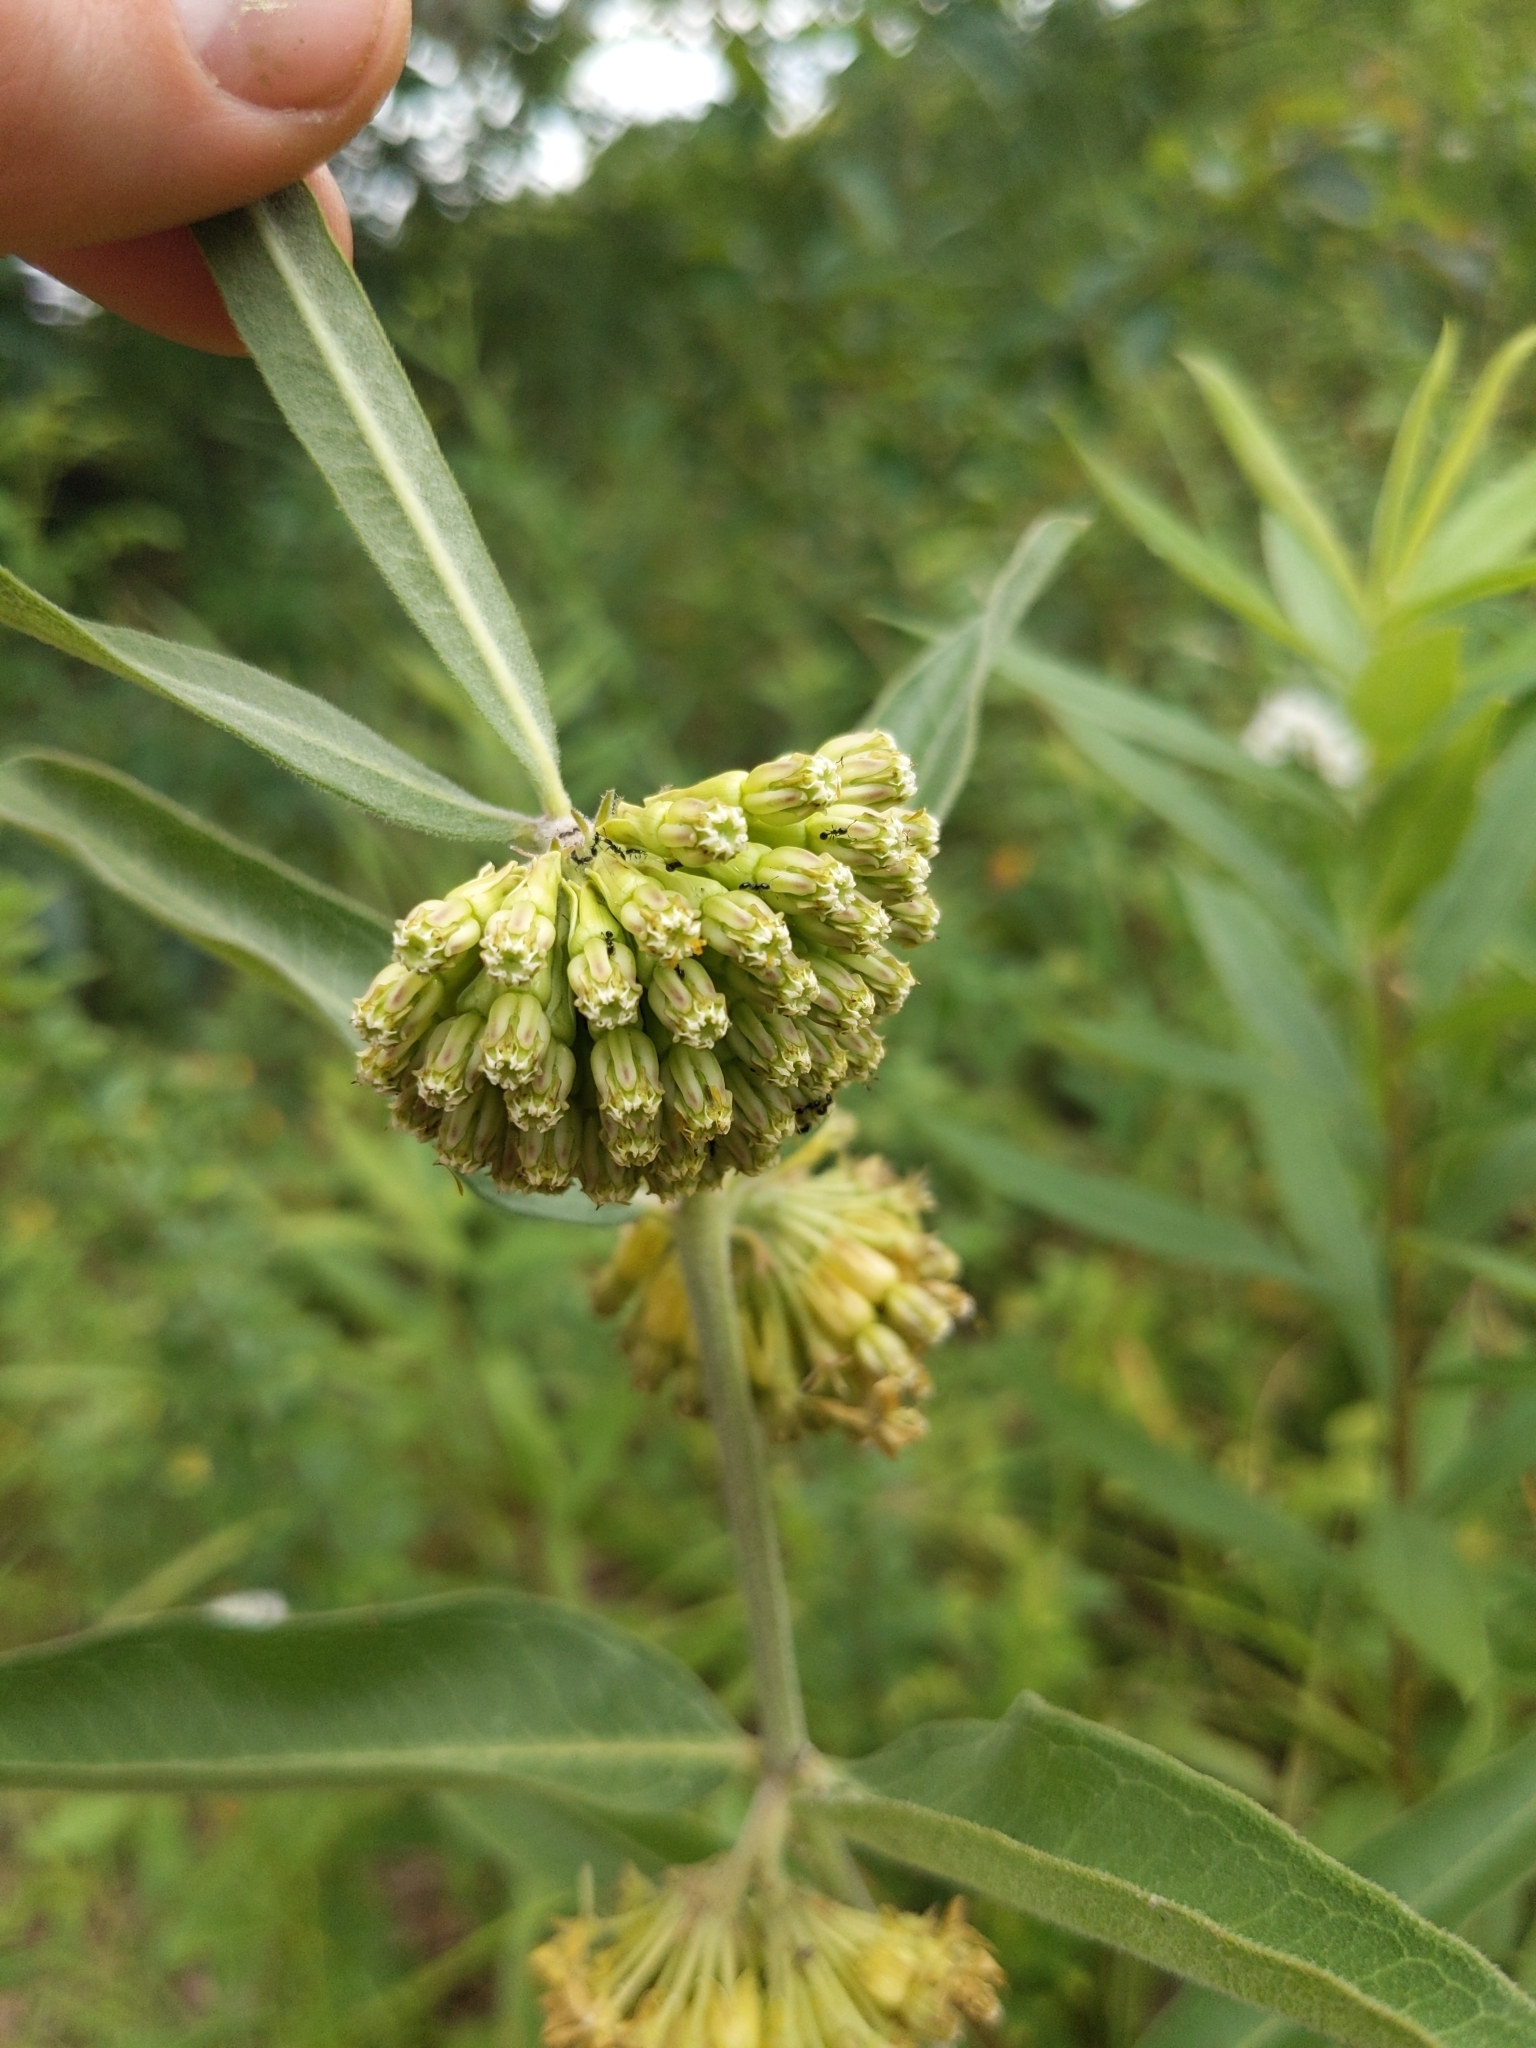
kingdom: Plantae
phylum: Tracheophyta
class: Magnoliopsida
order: Gentianales
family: Apocynaceae
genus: Asclepias
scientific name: Asclepias viridiflora
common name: Green comet milkweed
